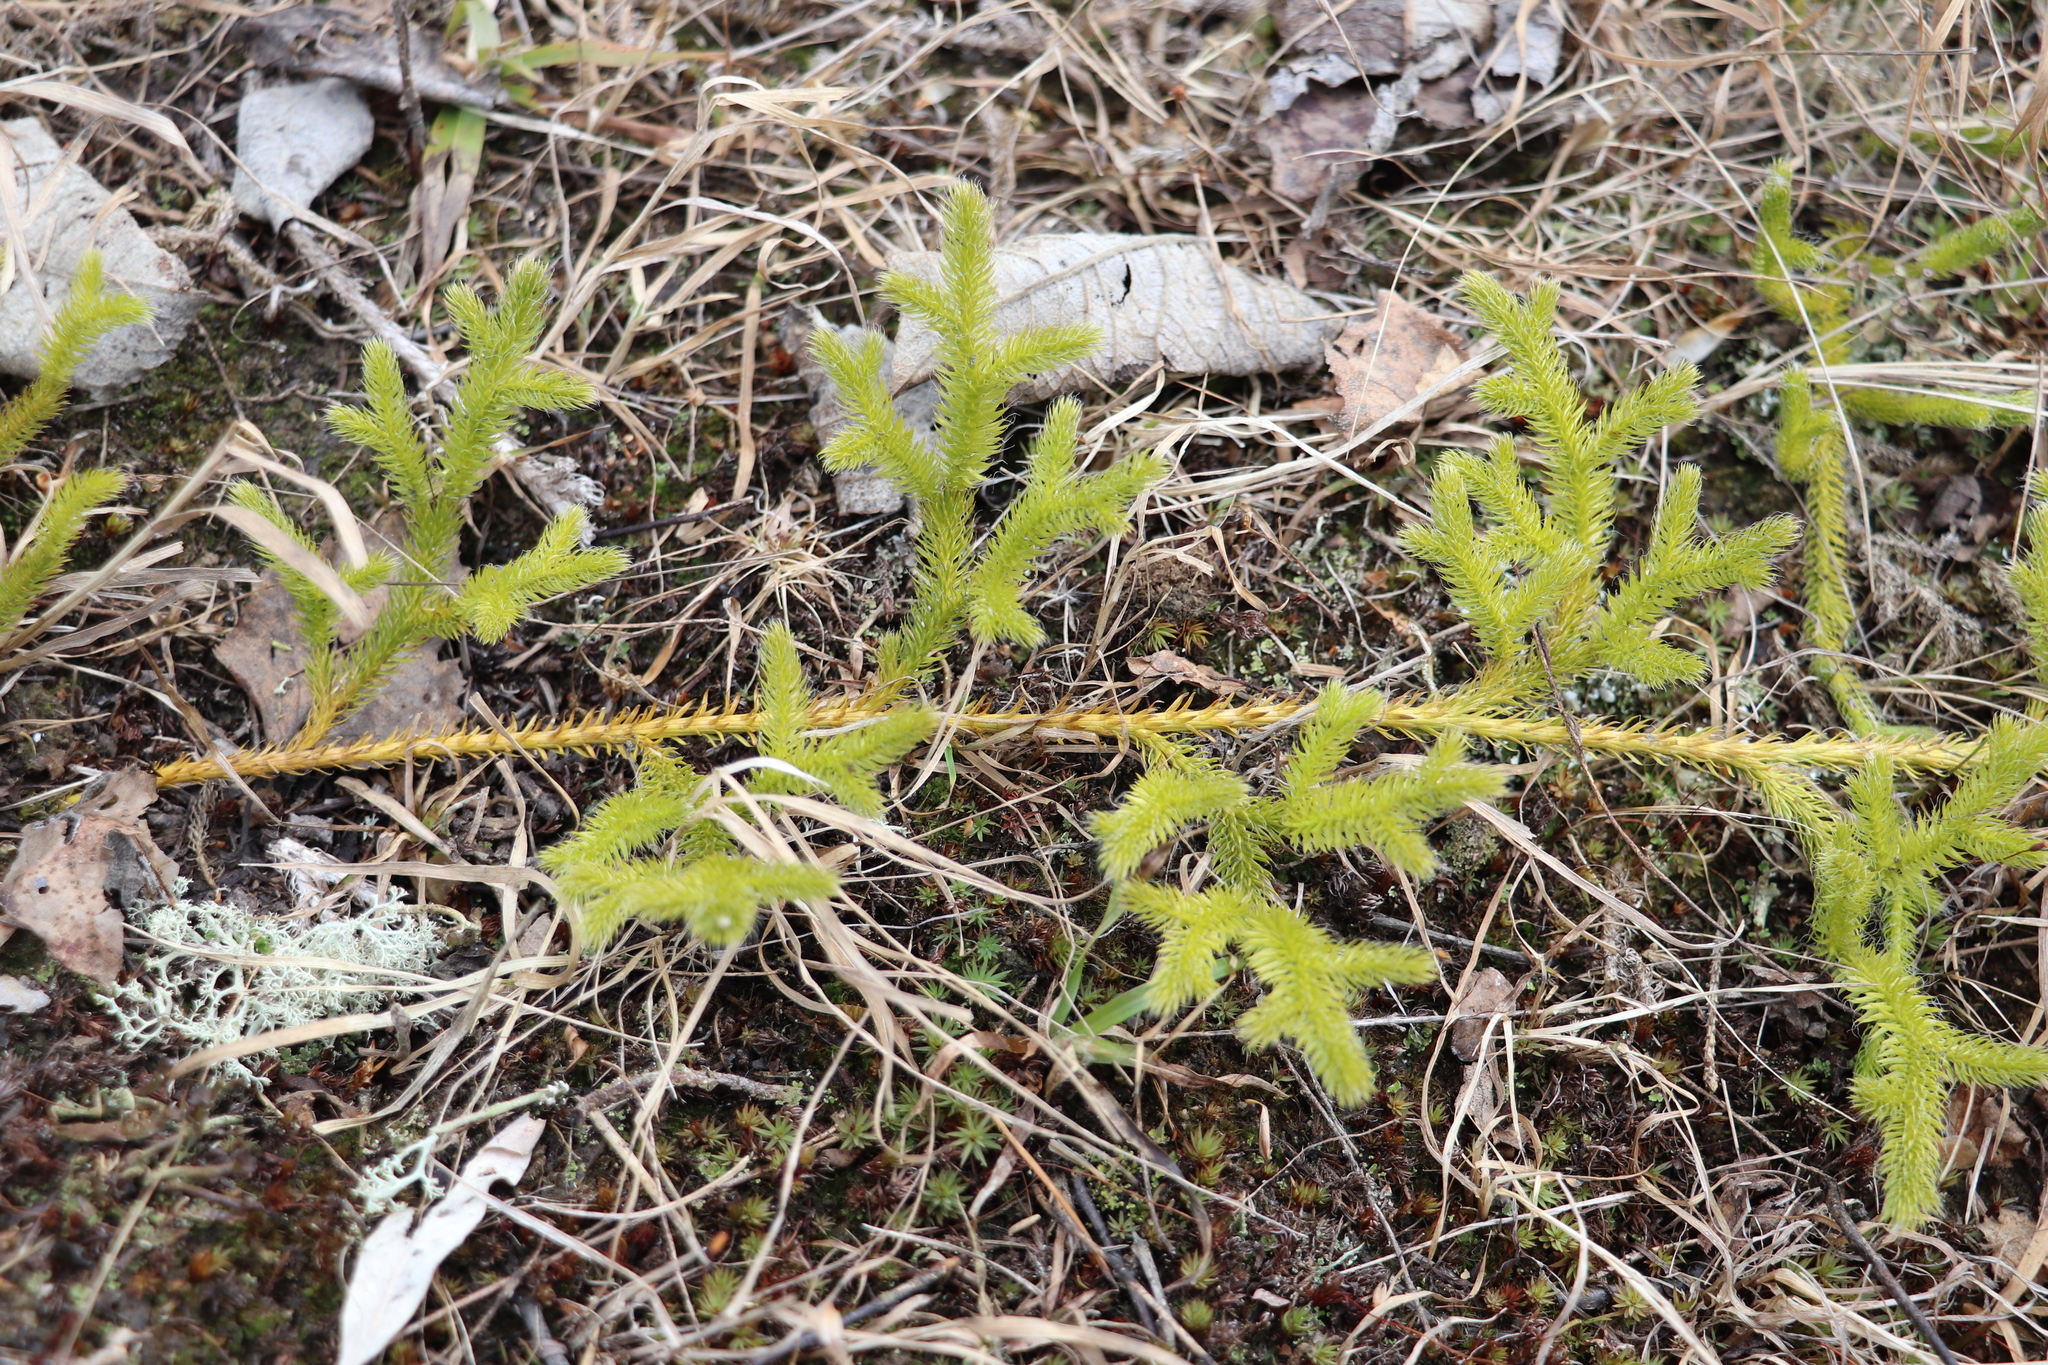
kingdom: Plantae
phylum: Tracheophyta
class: Lycopodiopsida
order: Lycopodiales
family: Lycopodiaceae
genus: Lycopodium
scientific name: Lycopodium clavatum
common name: Stag's-horn clubmoss
